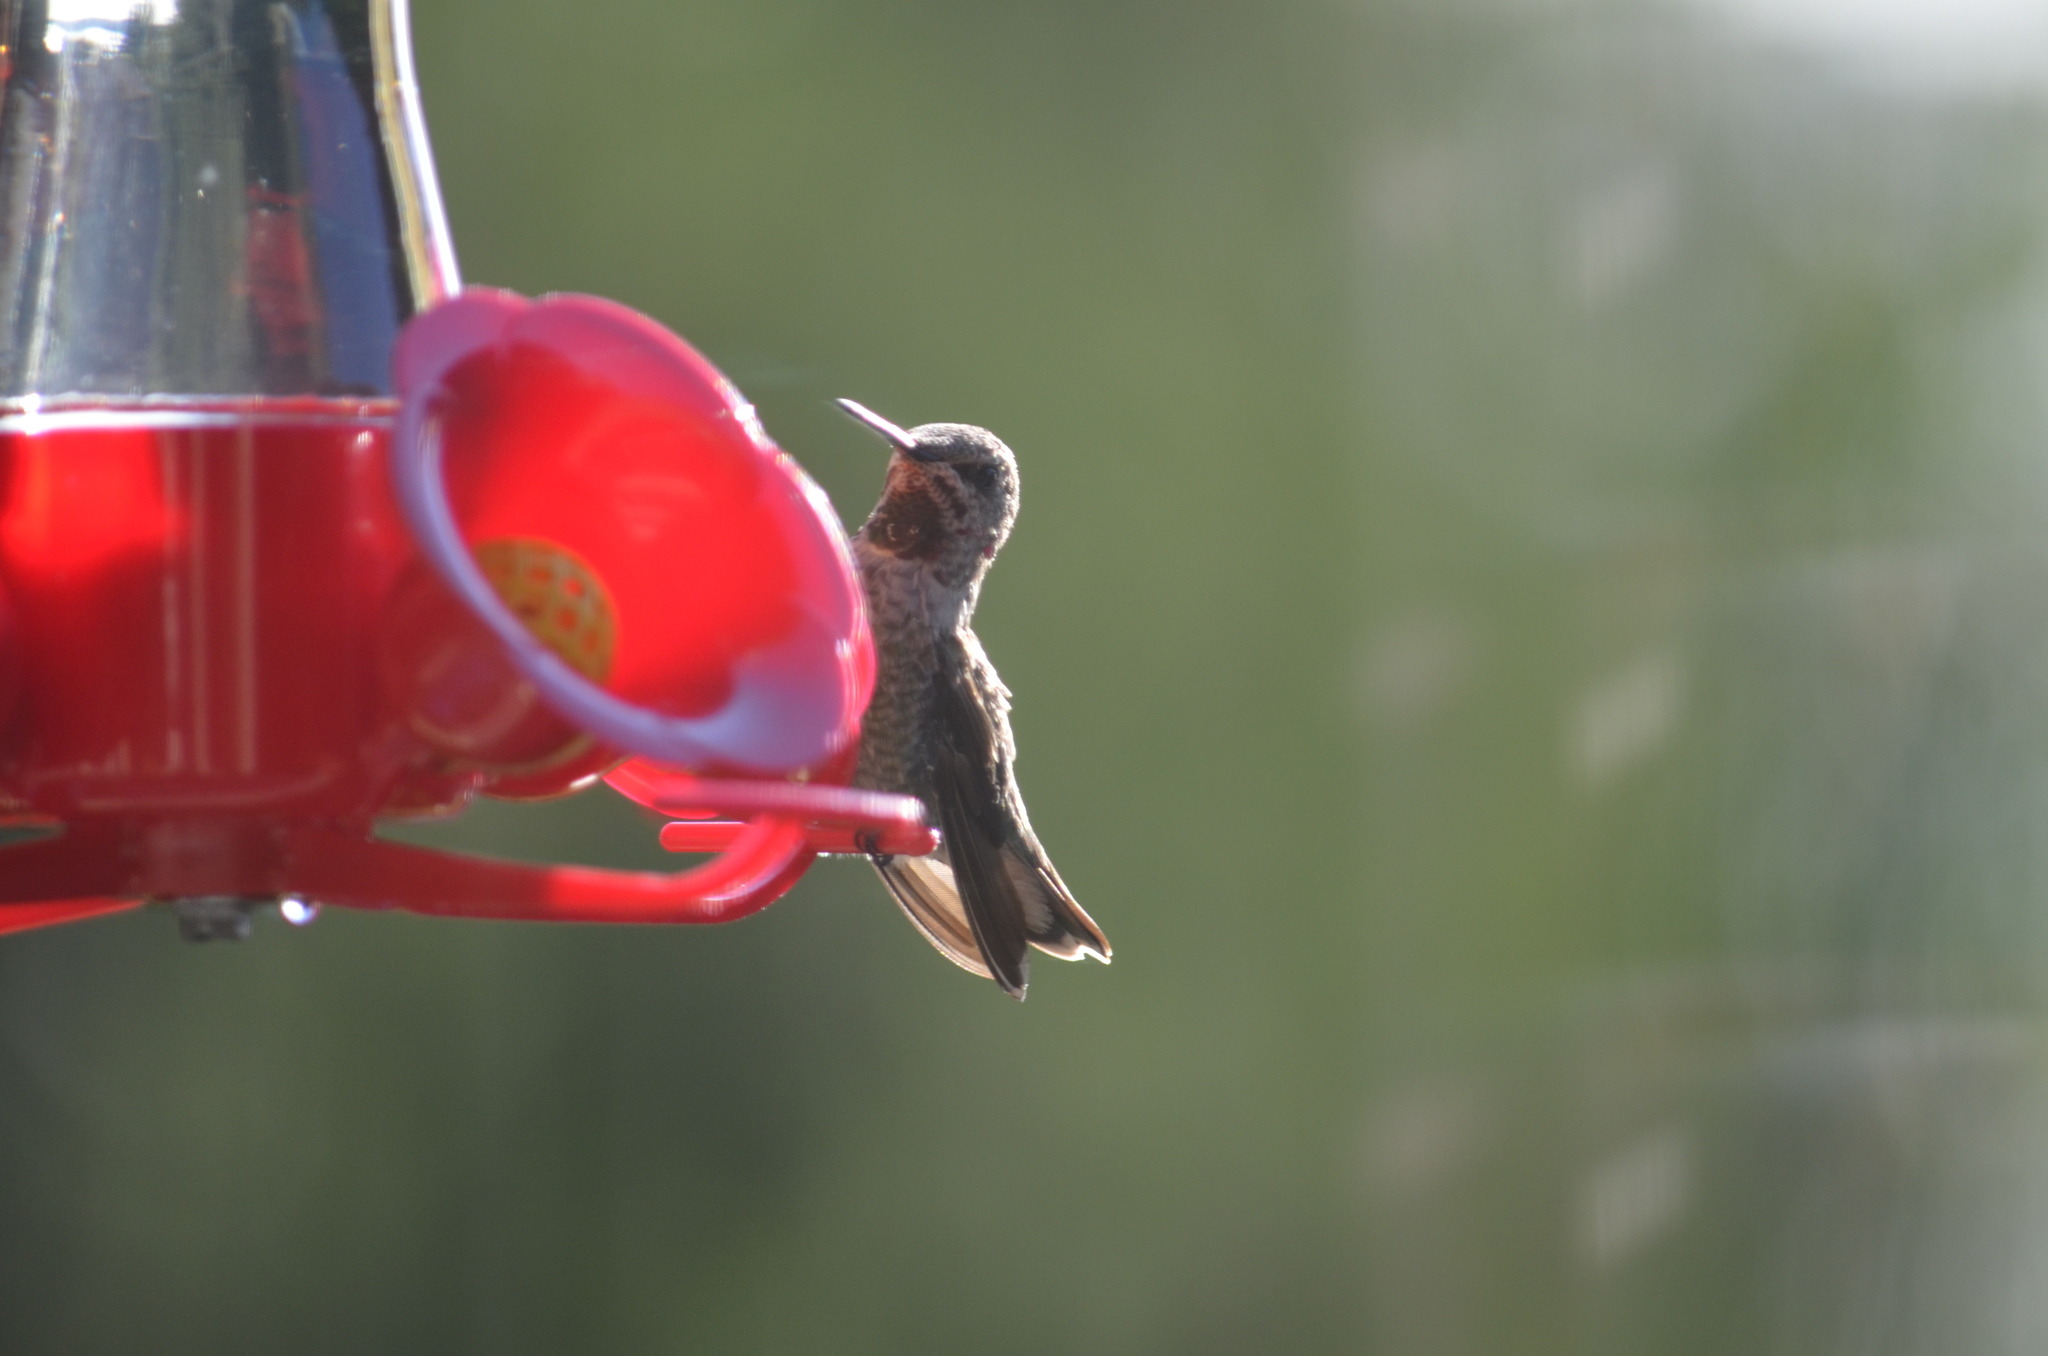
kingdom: Animalia
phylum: Chordata
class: Aves
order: Apodiformes
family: Trochilidae
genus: Calypte
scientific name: Calypte anna
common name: Anna's hummingbird
